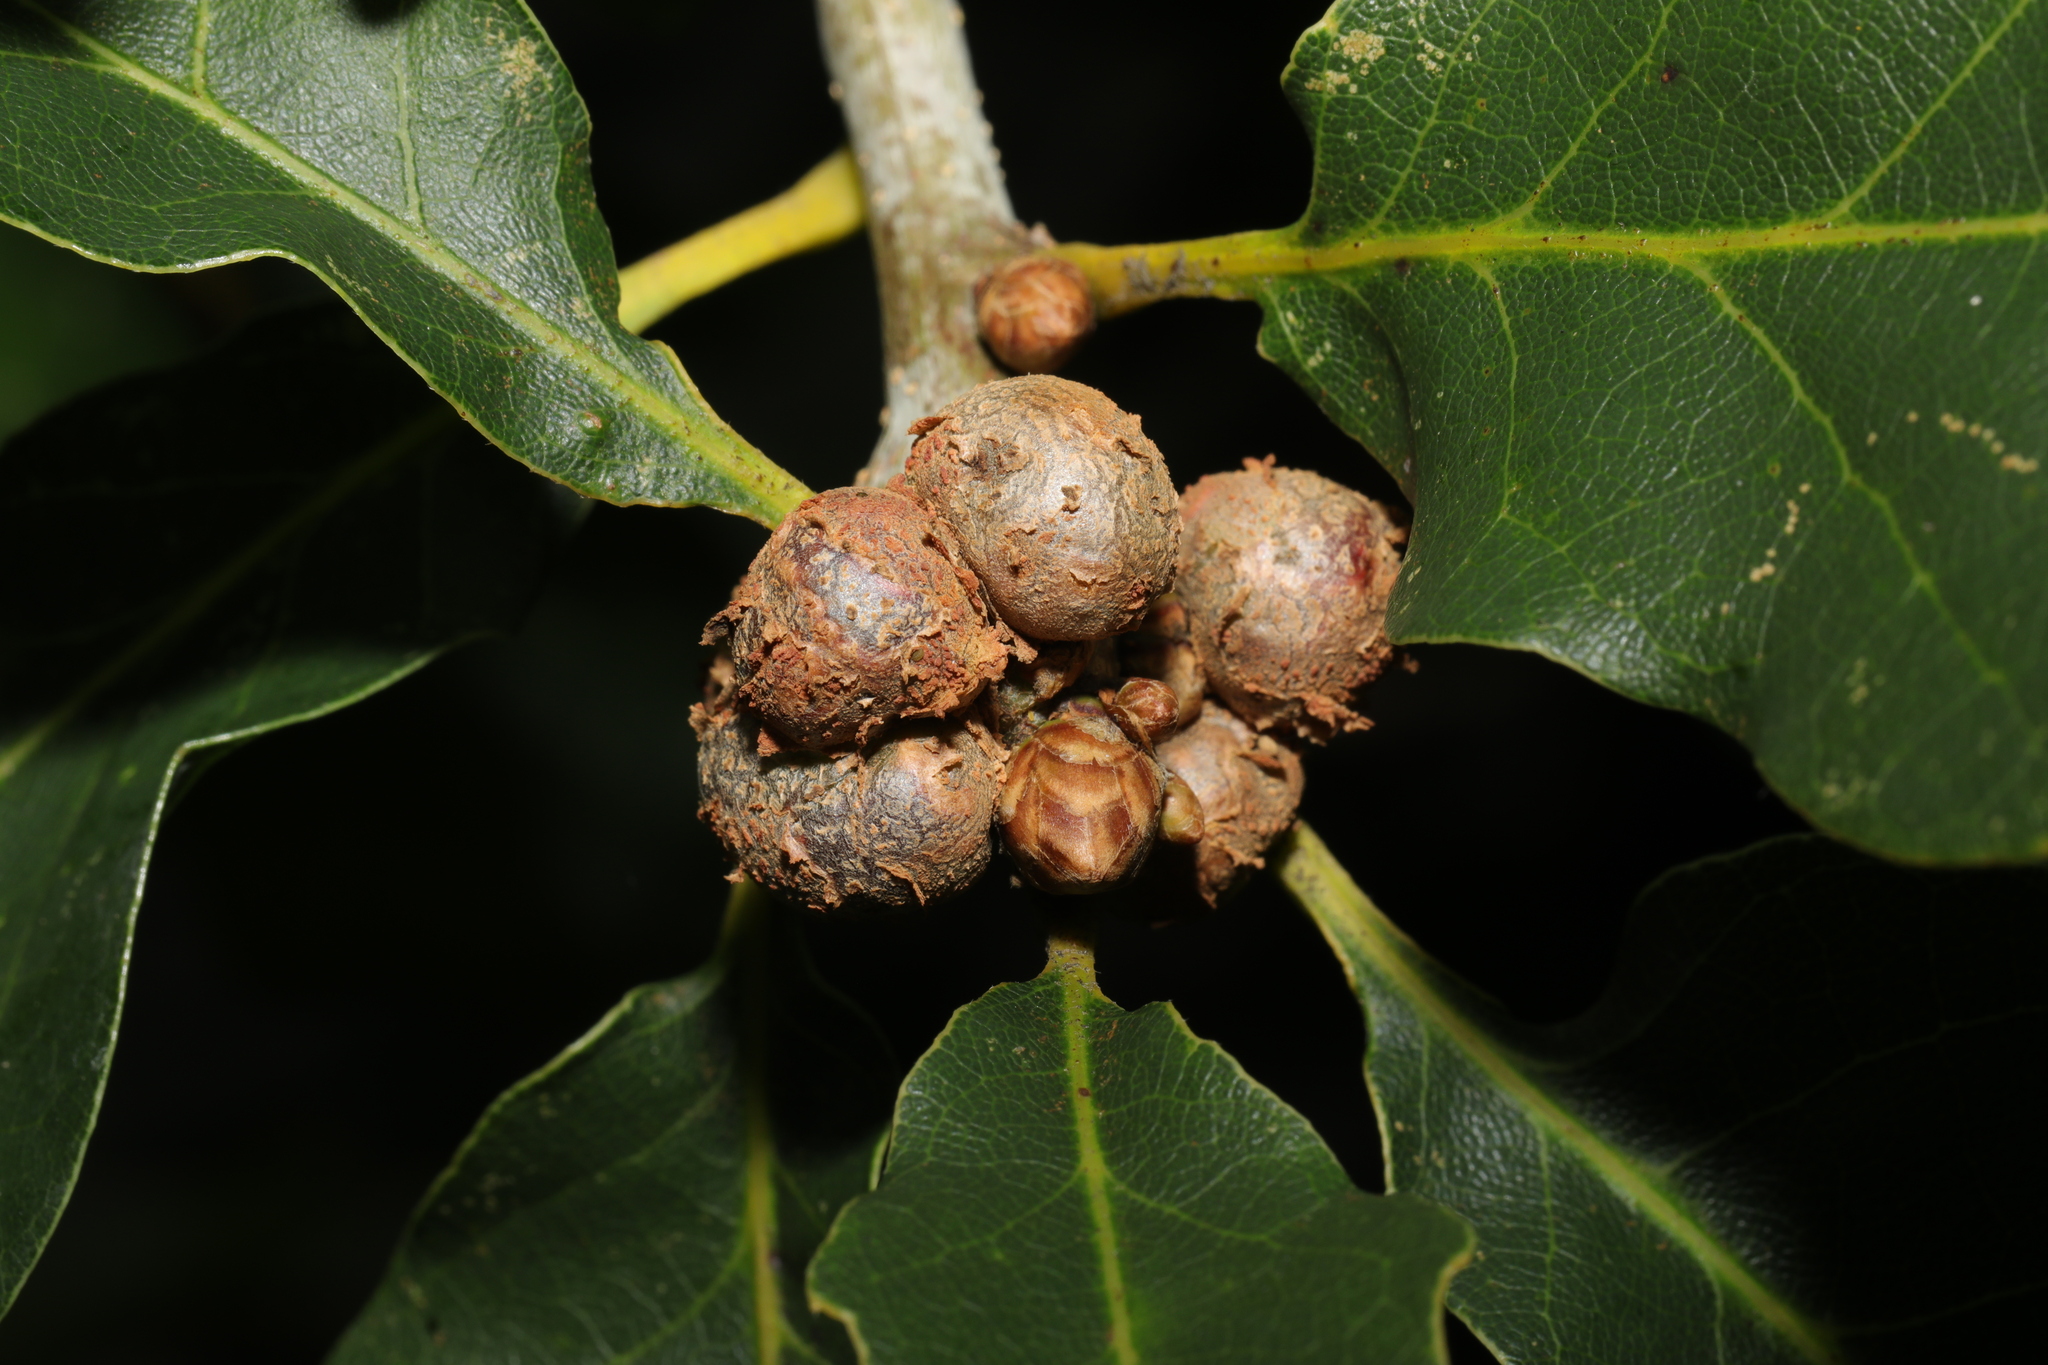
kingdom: Animalia
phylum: Arthropoda
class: Insecta
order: Hymenoptera
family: Cynipidae
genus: Andricus
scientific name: Andricus lignicolus
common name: Cola-nut gall
